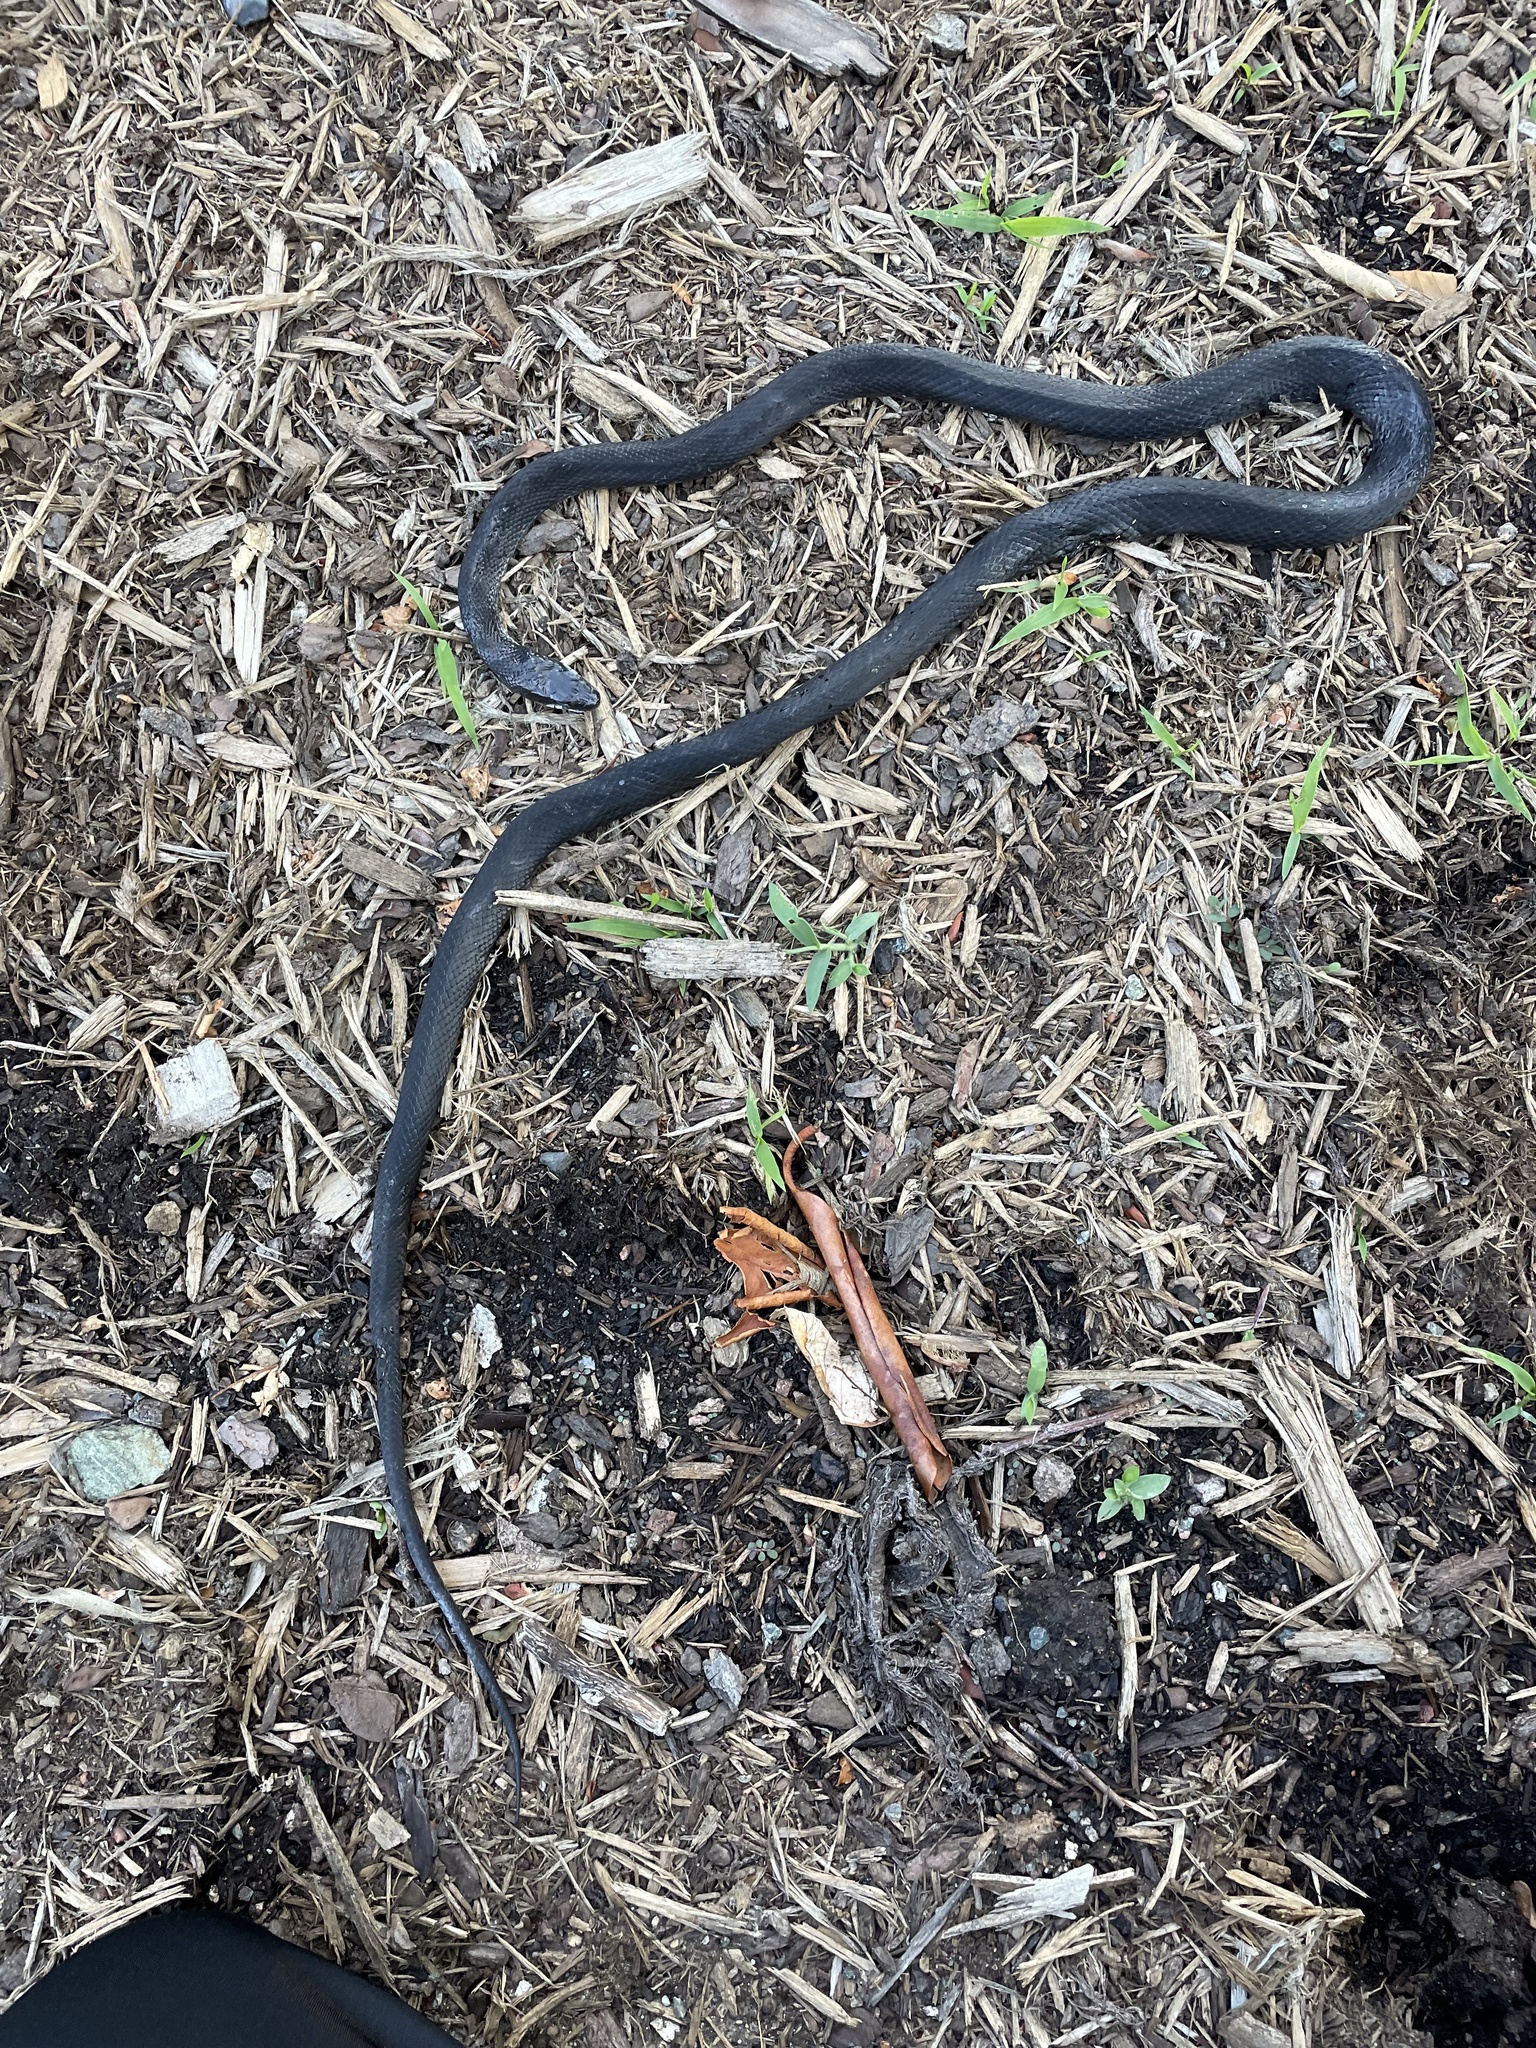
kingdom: Animalia
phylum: Chordata
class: Squamata
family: Colubridae
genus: Pantherophis
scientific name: Pantherophis
